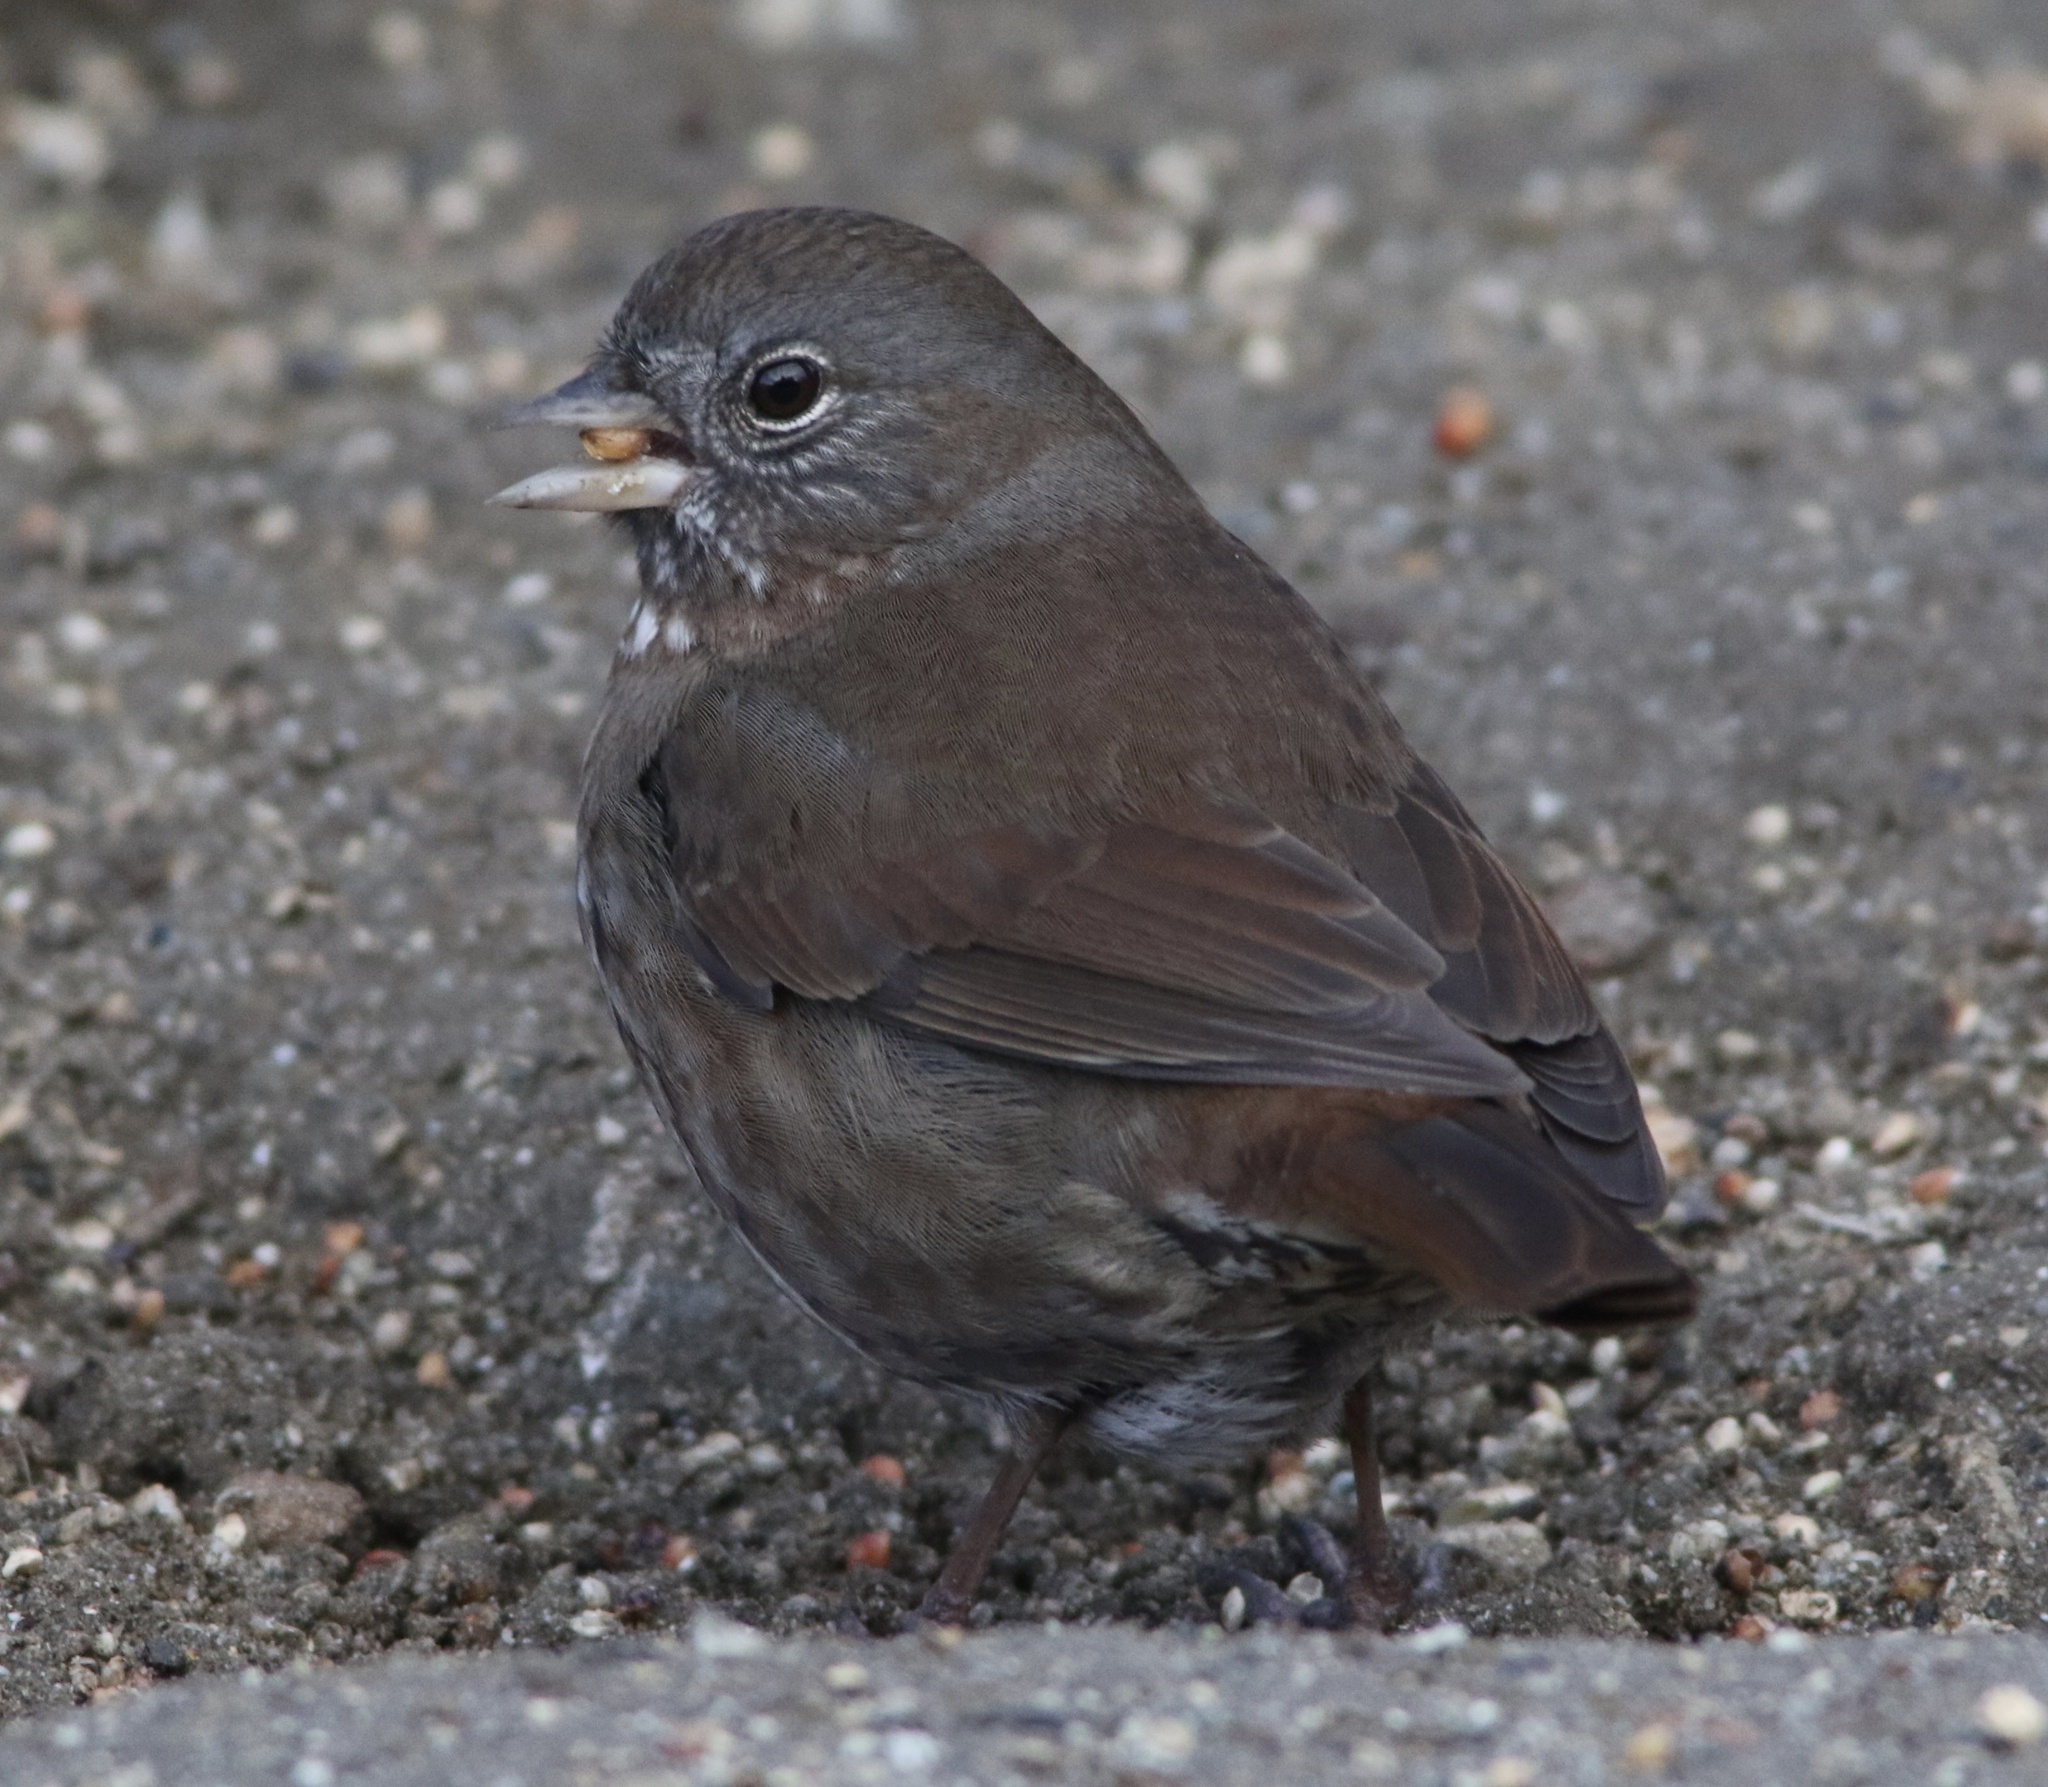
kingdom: Animalia
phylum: Chordata
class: Aves
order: Passeriformes
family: Passerellidae
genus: Passerella
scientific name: Passerella iliaca
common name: Fox sparrow
